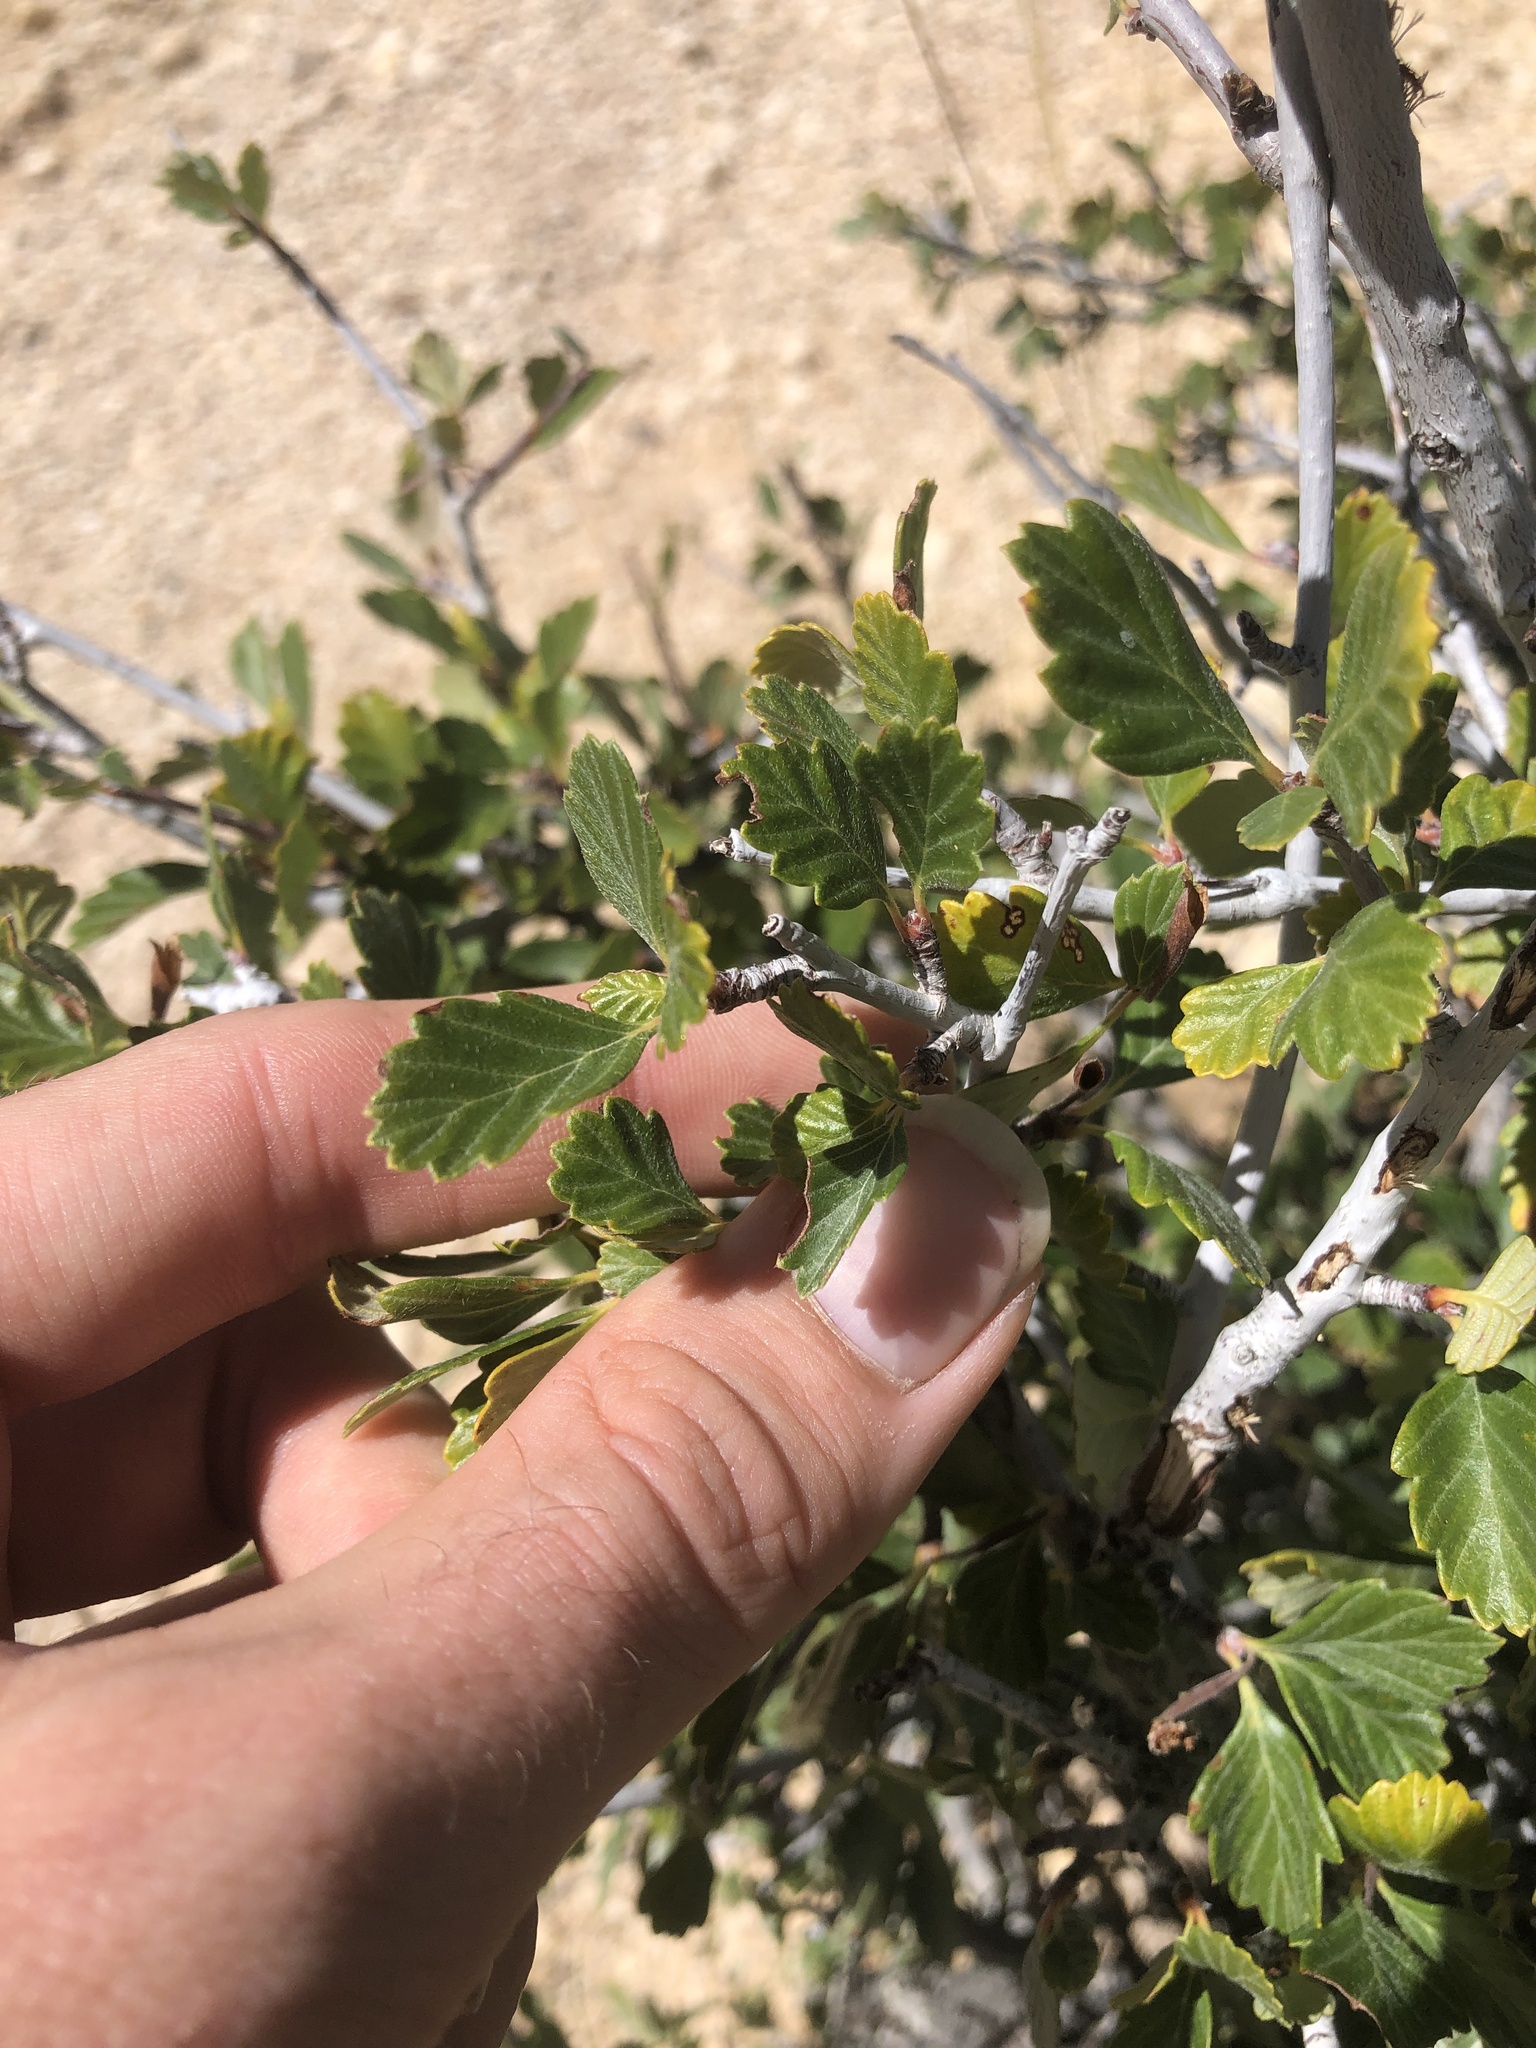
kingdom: Plantae
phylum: Tracheophyta
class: Magnoliopsida
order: Rosales
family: Rosaceae
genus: Cercocarpus
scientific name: Cercocarpus montanus
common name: Alder-leaf cercocarpus
